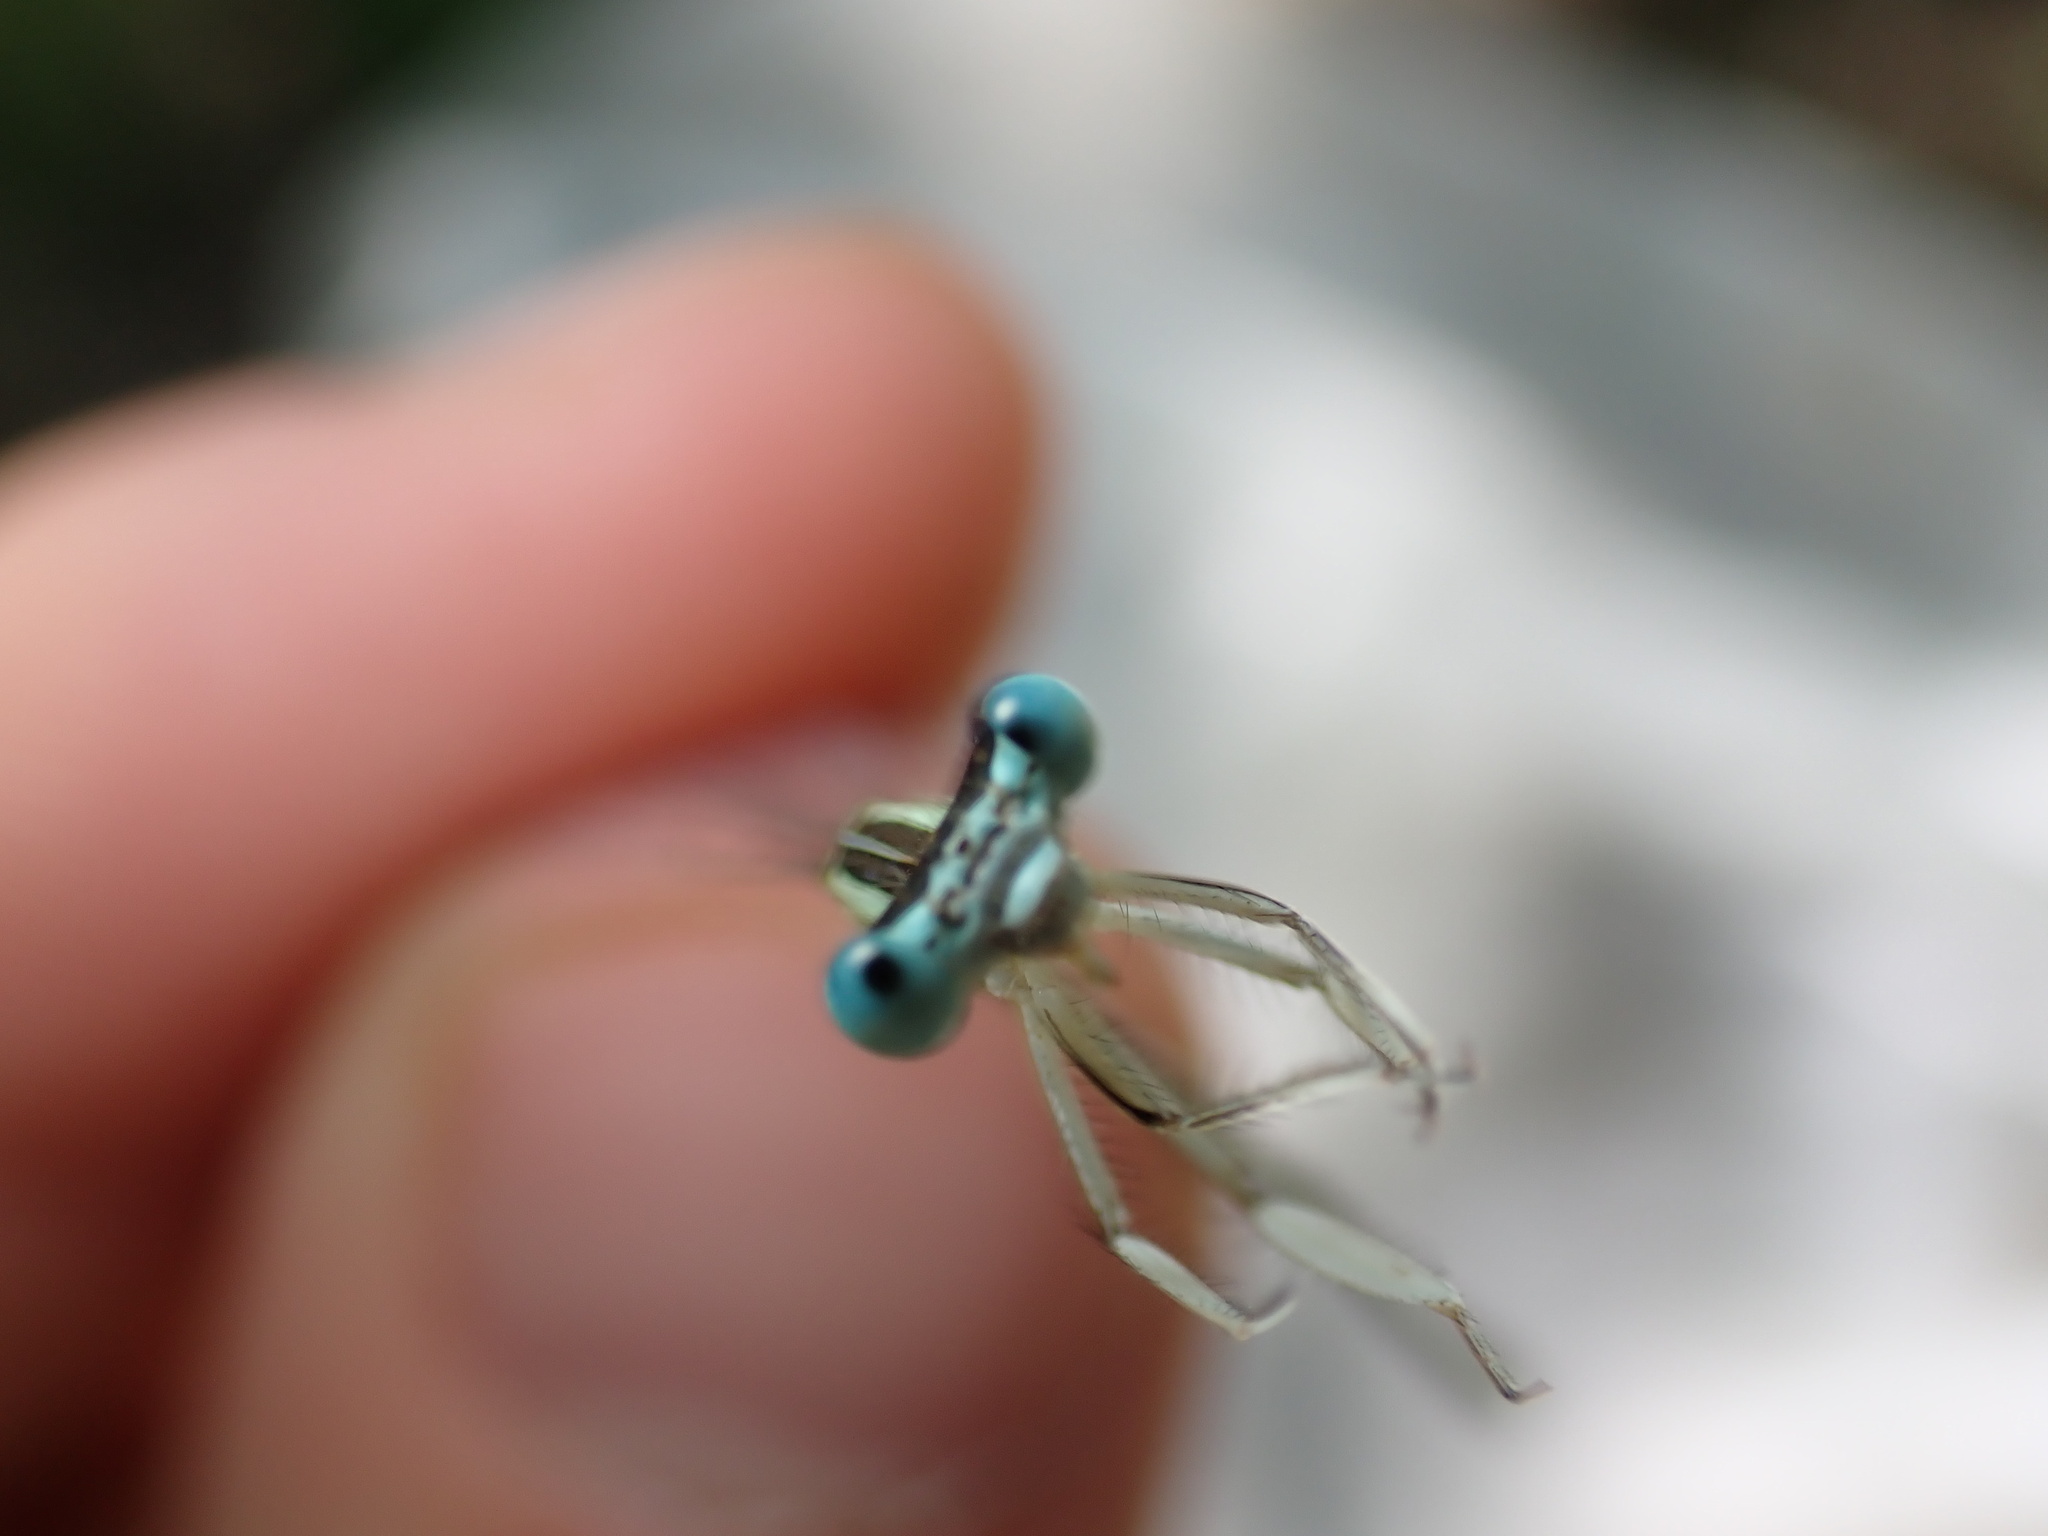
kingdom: Animalia
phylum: Arthropoda
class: Insecta
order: Odonata
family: Platycnemididae
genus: Platycnemis
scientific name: Platycnemis latipes
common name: White featherleg
